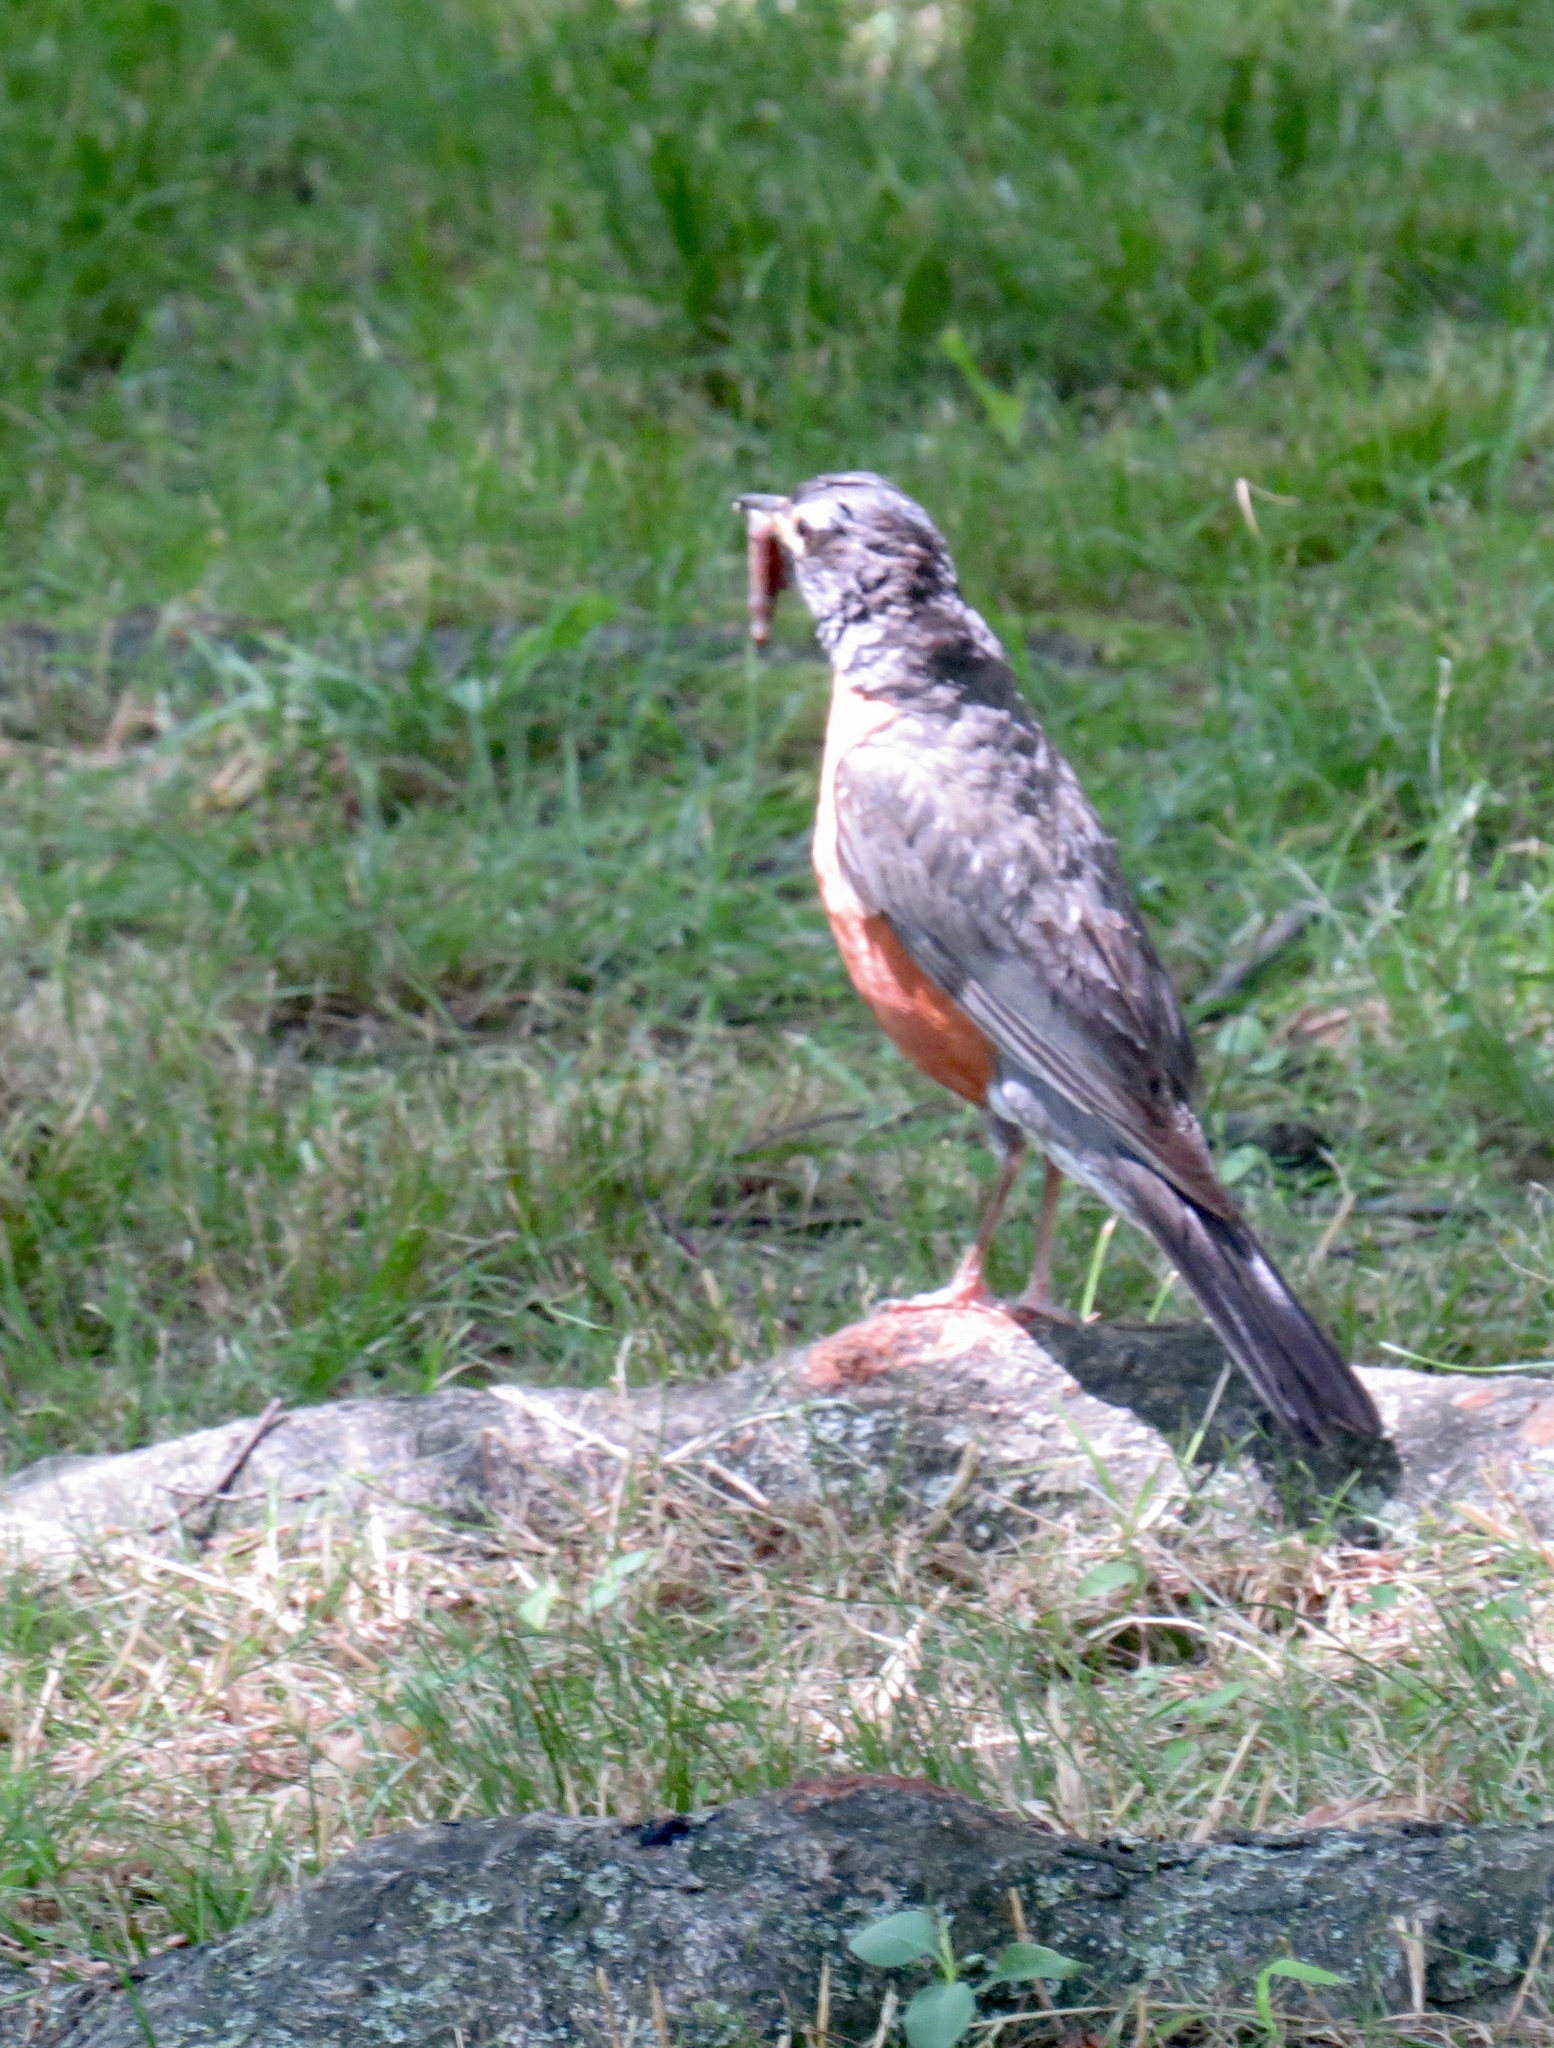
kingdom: Animalia
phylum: Chordata
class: Aves
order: Passeriformes
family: Turdidae
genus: Turdus
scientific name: Turdus migratorius
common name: American robin
